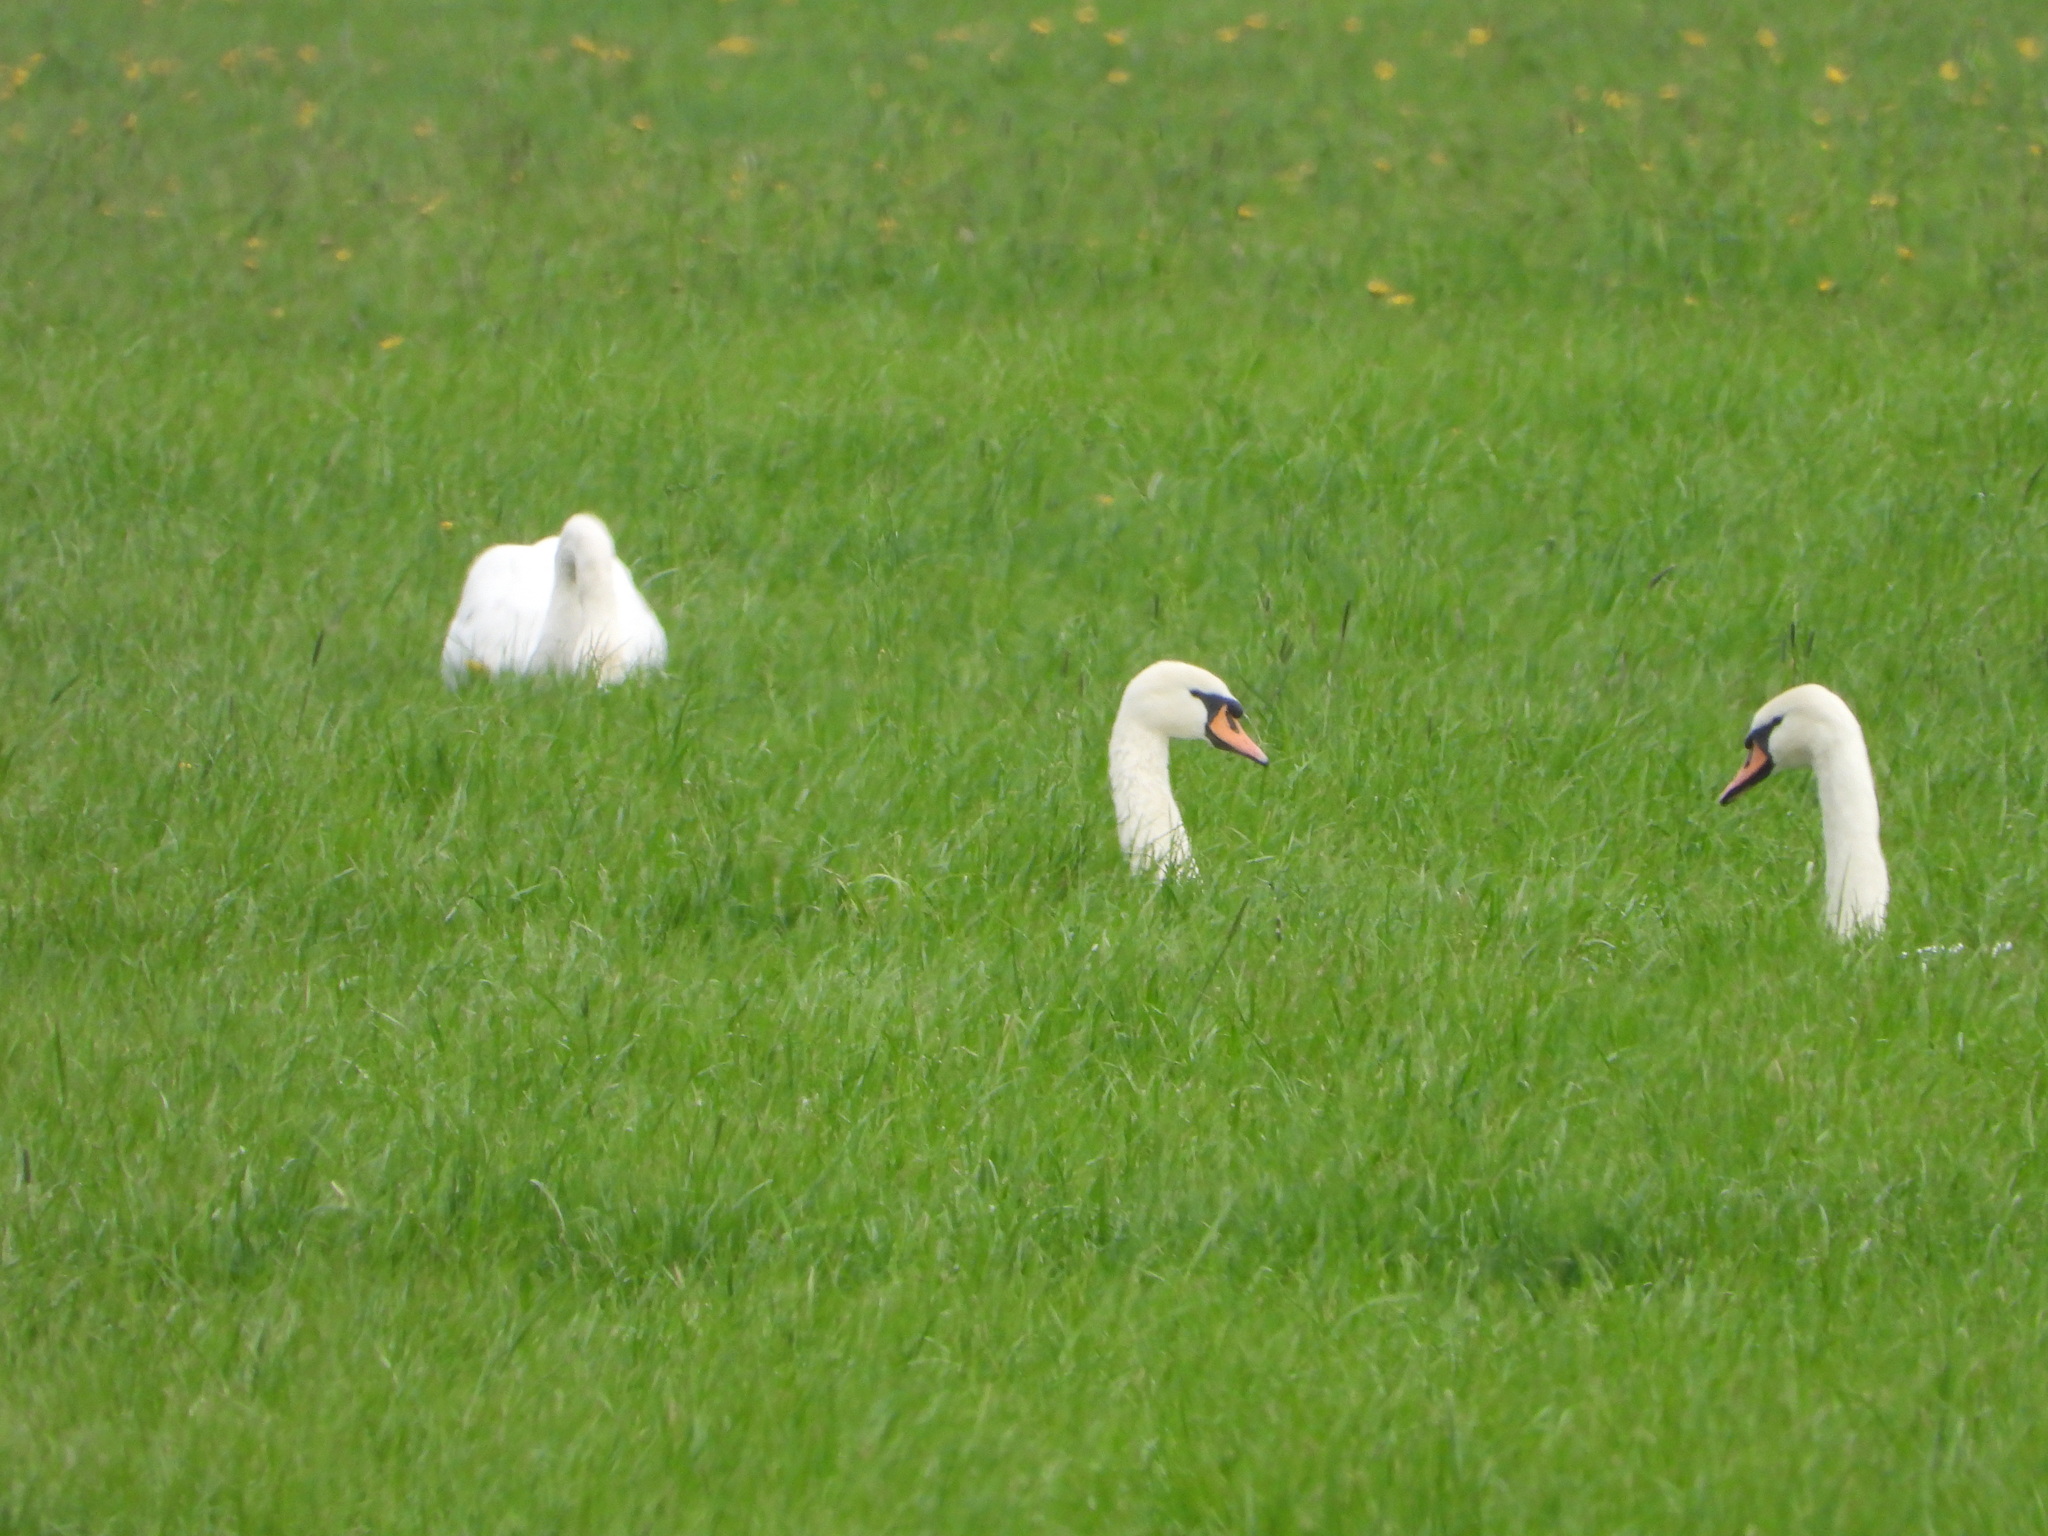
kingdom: Animalia
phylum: Chordata
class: Aves
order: Anseriformes
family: Anatidae
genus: Cygnus
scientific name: Cygnus olor
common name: Mute swan
